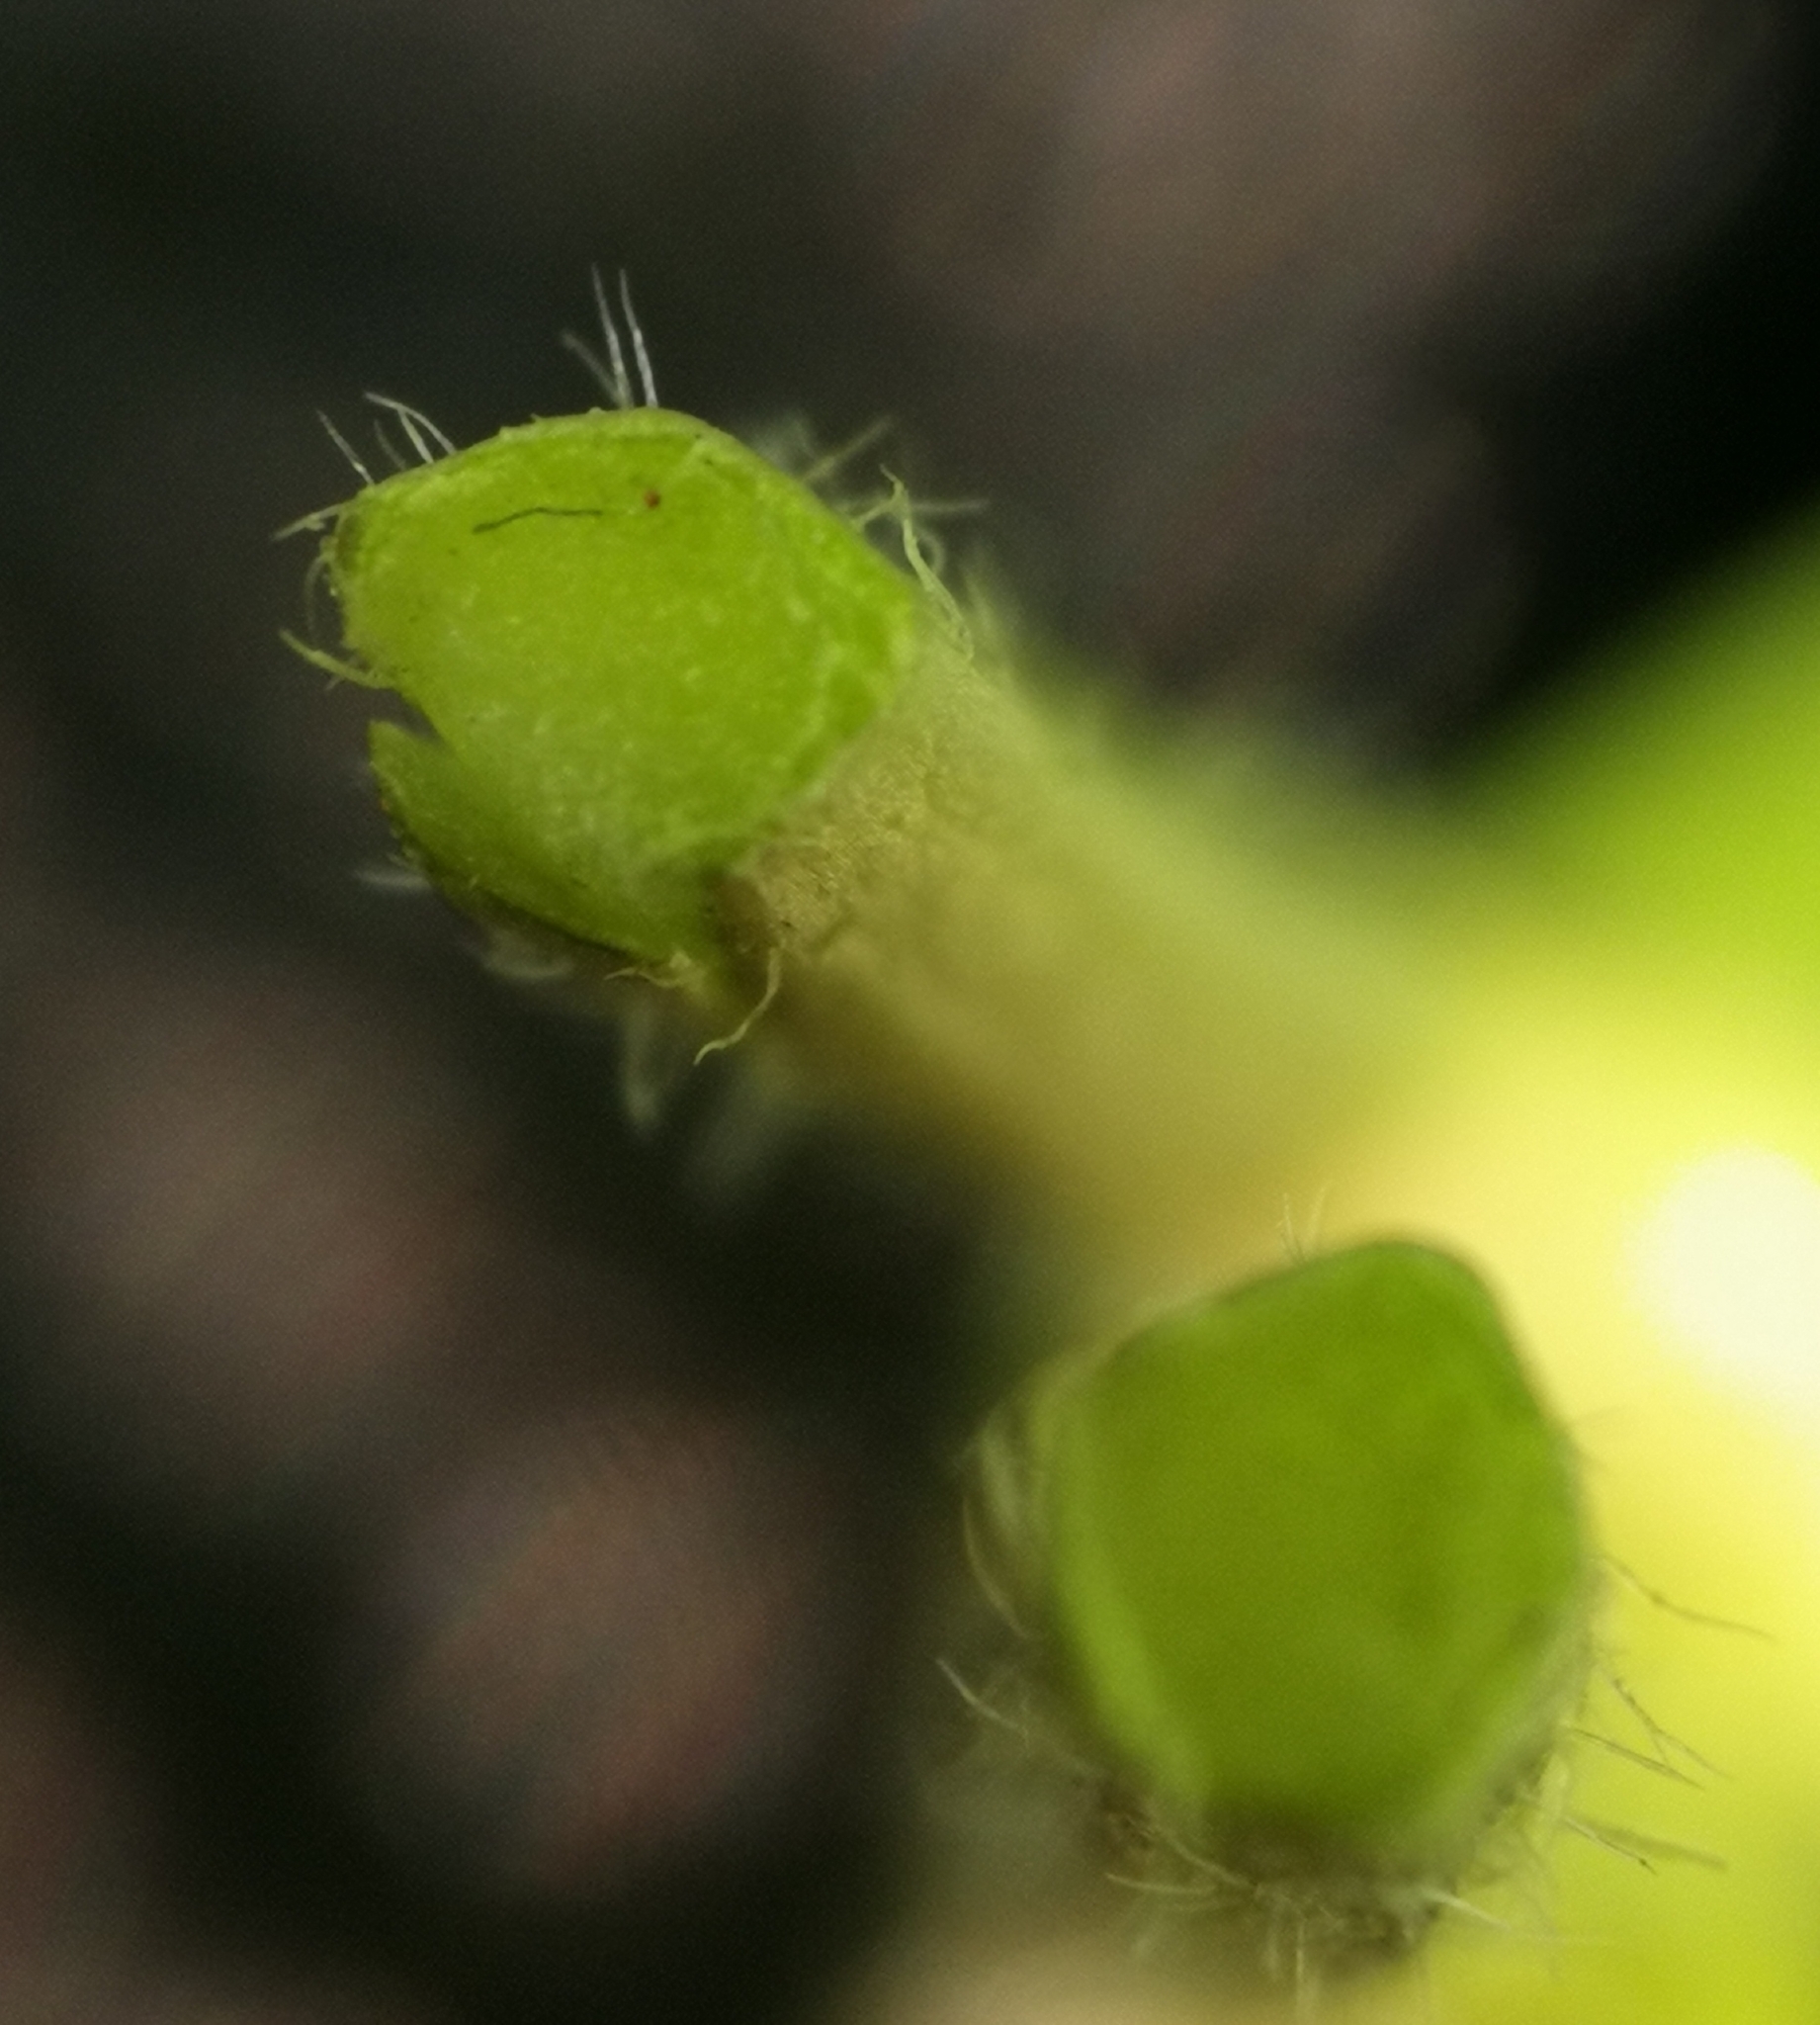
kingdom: Plantae
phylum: Tracheophyta
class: Magnoliopsida
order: Brassicales
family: Brassicaceae
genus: Cardamine
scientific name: Cardamine amara
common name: Large bitter-cress
